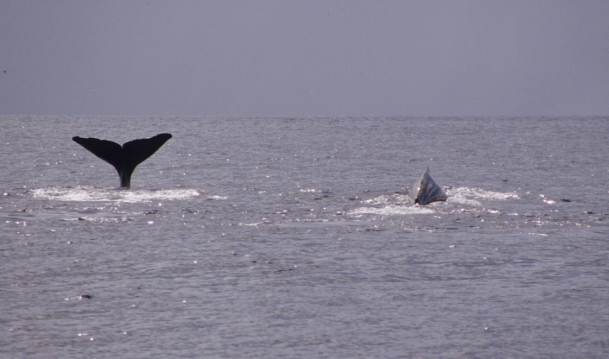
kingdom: Animalia
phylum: Chordata
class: Mammalia
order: Cetacea
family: Physeteridae
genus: Physeter
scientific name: Physeter macrocephalus
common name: Sperm whale
